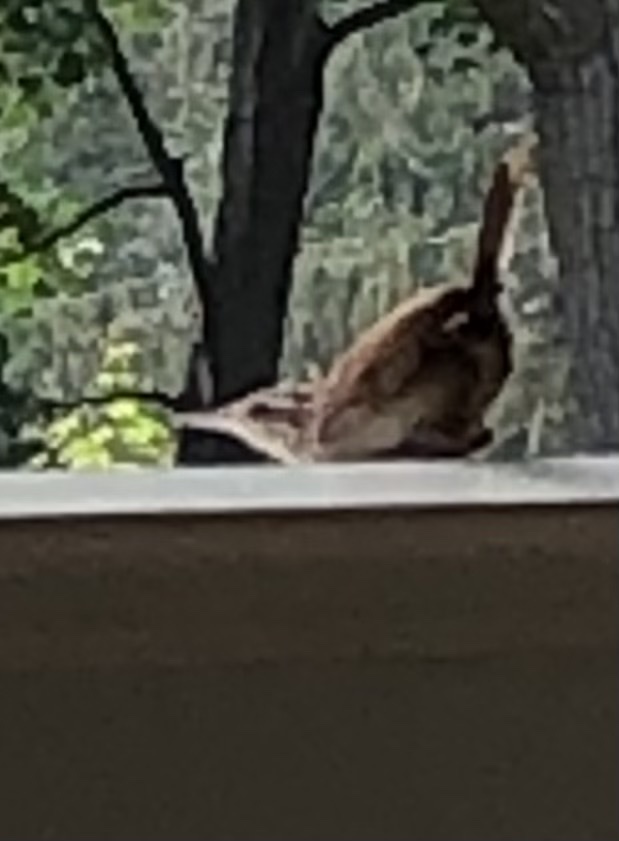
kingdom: Animalia
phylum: Chordata
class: Aves
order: Passeriformes
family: Troglodytidae
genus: Thryothorus
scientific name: Thryothorus ludovicianus
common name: Carolina wren
